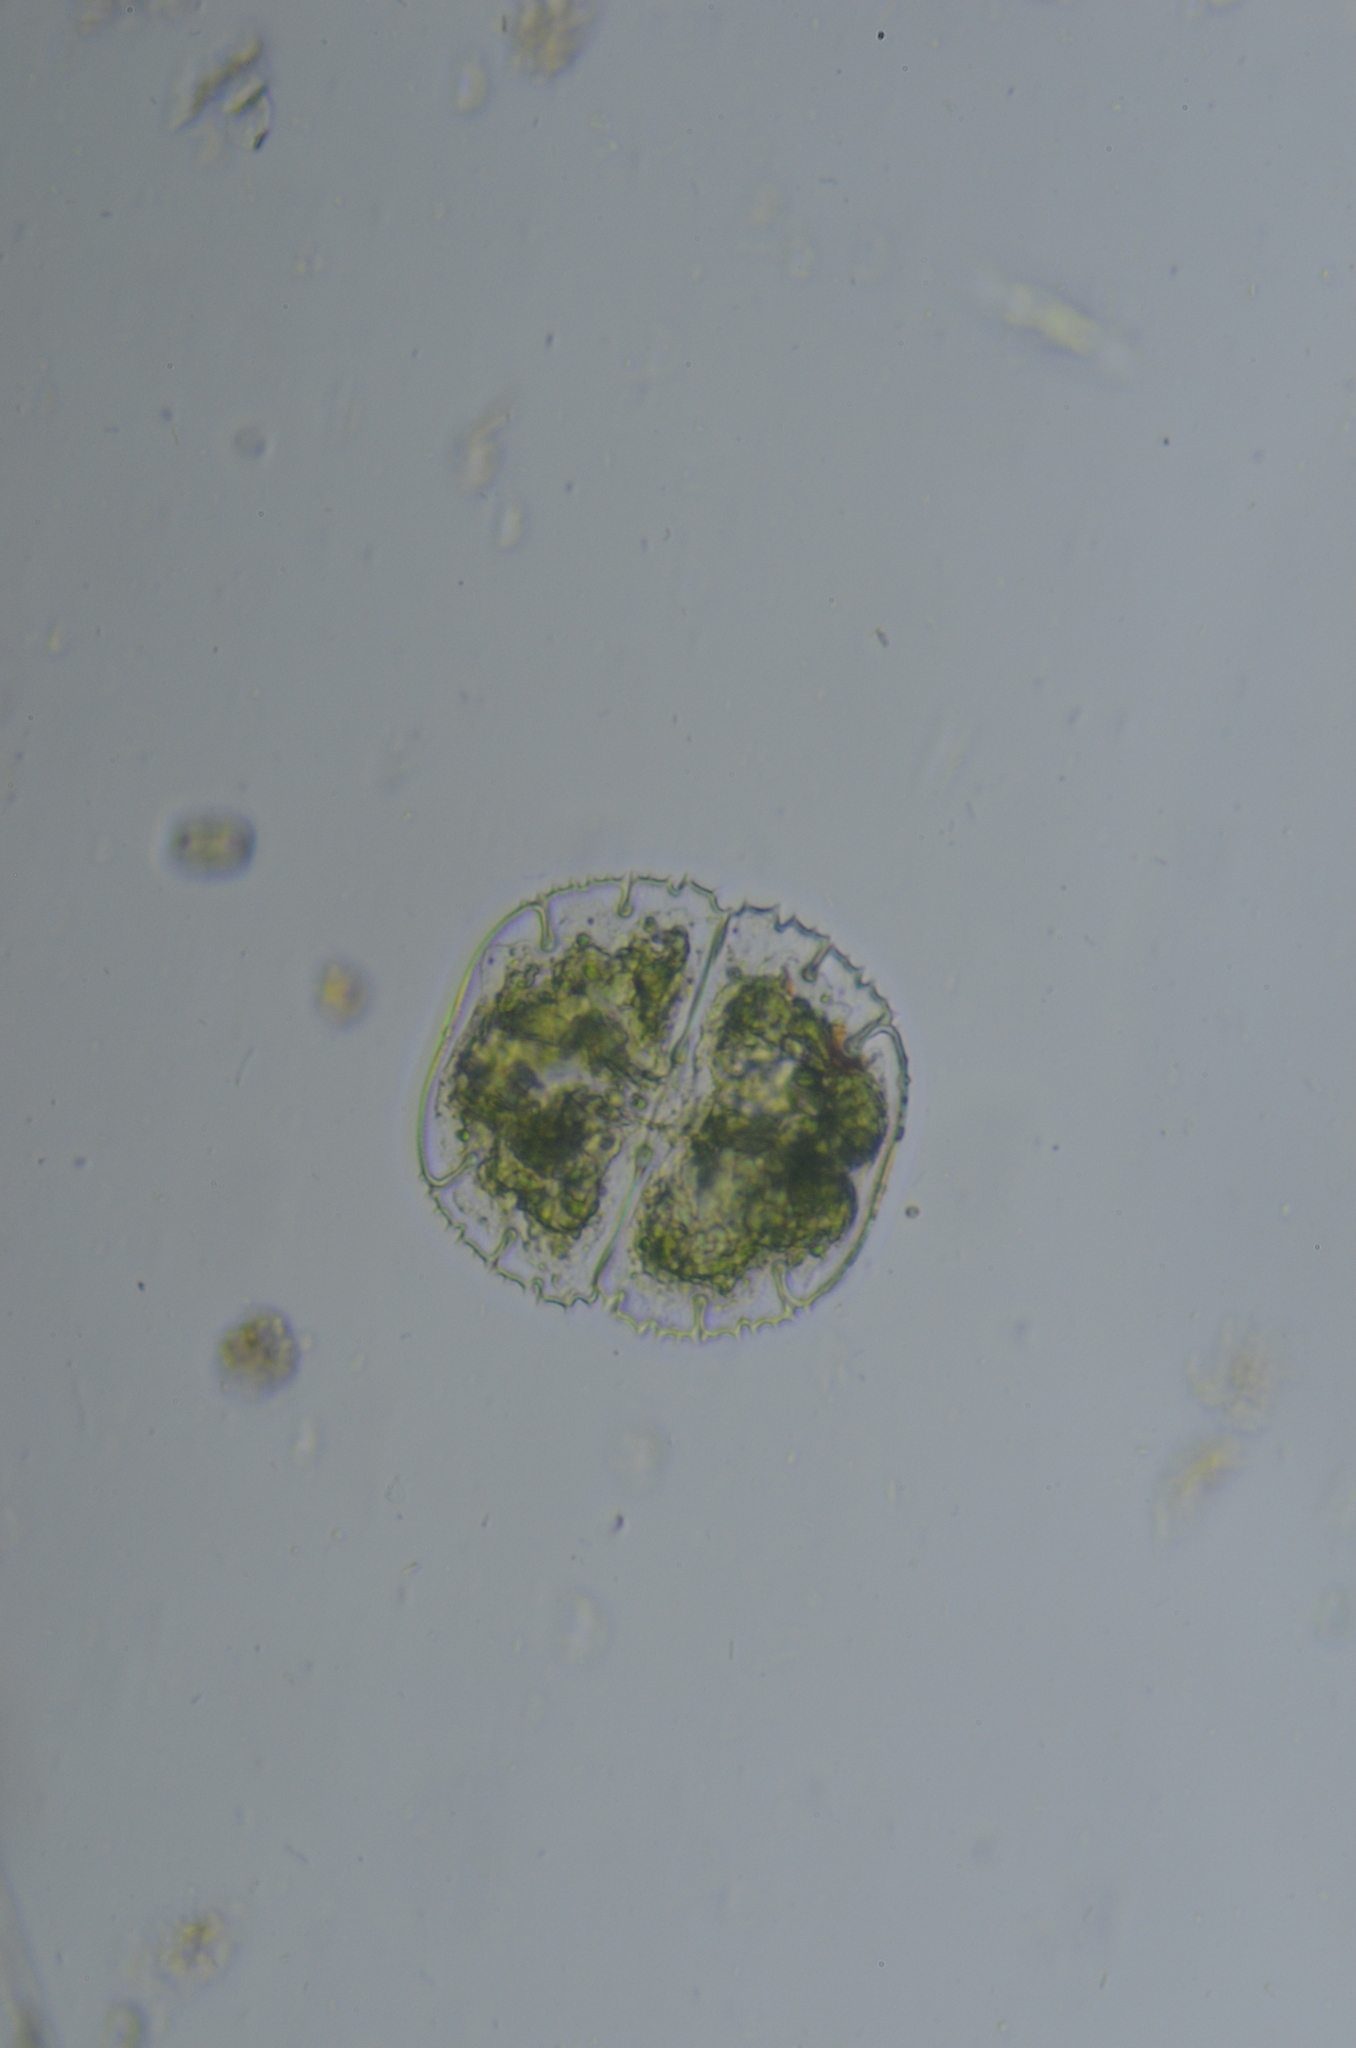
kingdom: Plantae
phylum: Charophyta
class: Conjugatophyceae
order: Desmidiales
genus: Micrasterias
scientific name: Micrasterias truncata
